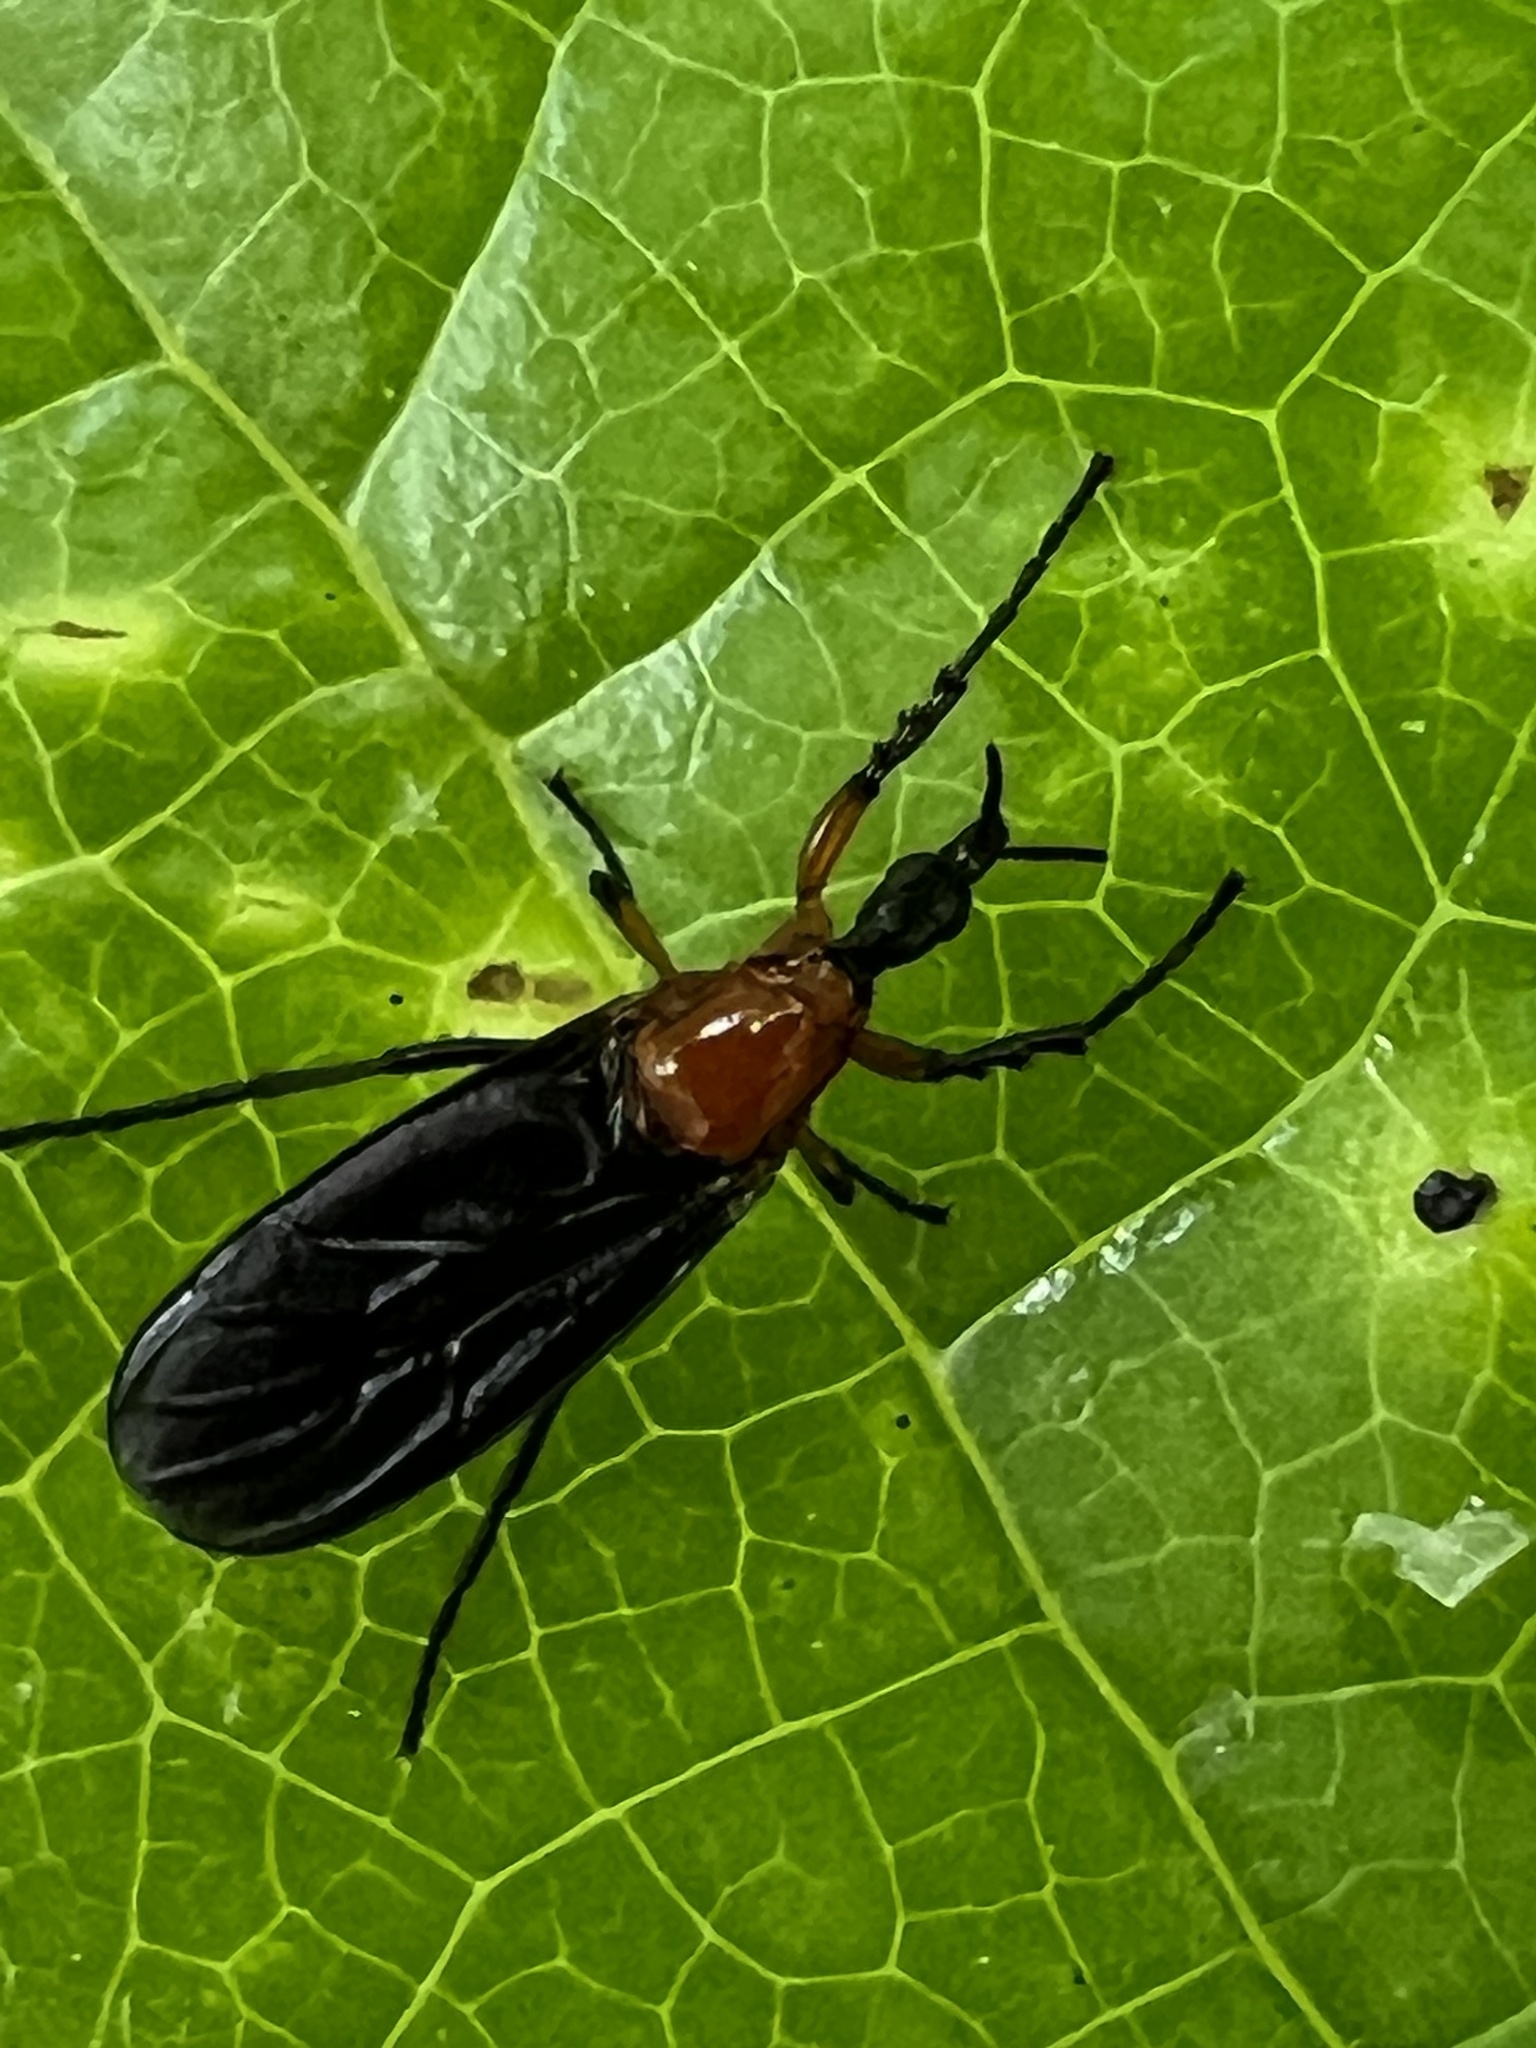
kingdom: Animalia
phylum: Arthropoda
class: Insecta
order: Diptera
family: Bibionidae
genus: Dilophus
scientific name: Dilophus spinipes
